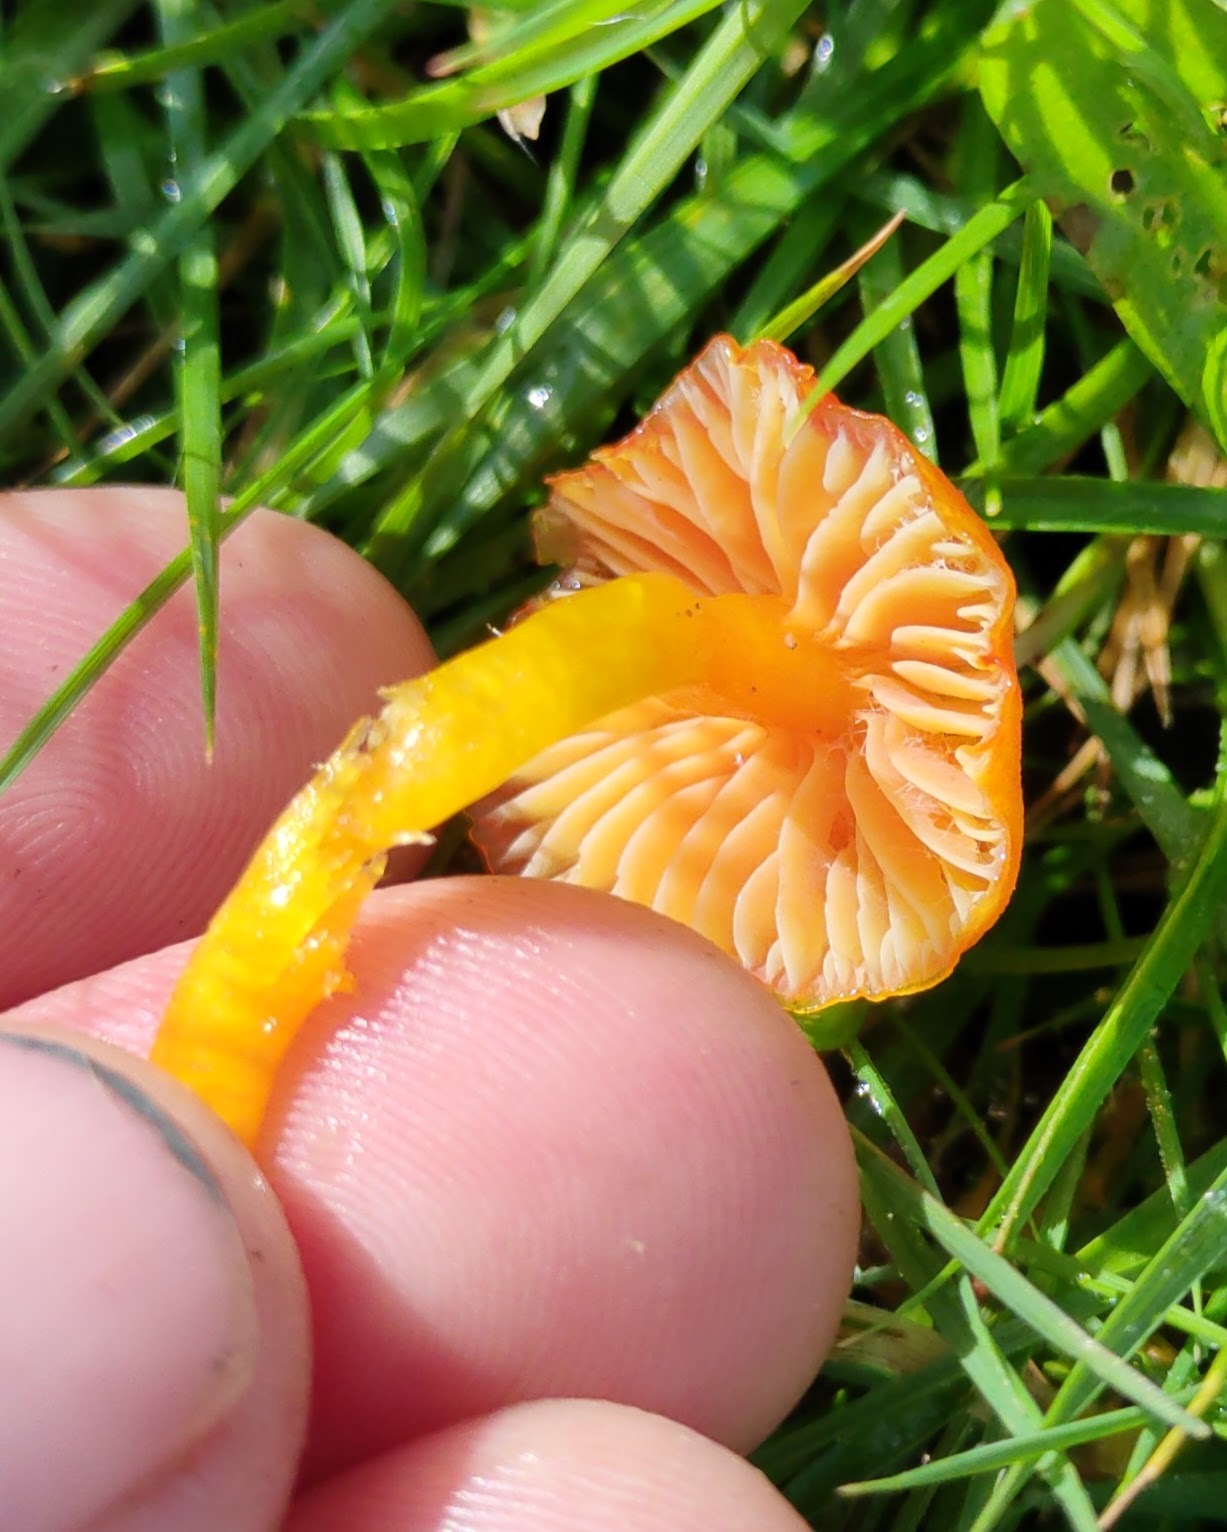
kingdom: Fungi
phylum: Basidiomycota
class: Agaricomycetes
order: Agaricales
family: Hygrophoraceae
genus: Hygrocybe
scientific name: Hygrocybe insipida
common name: Spangle waxcap
